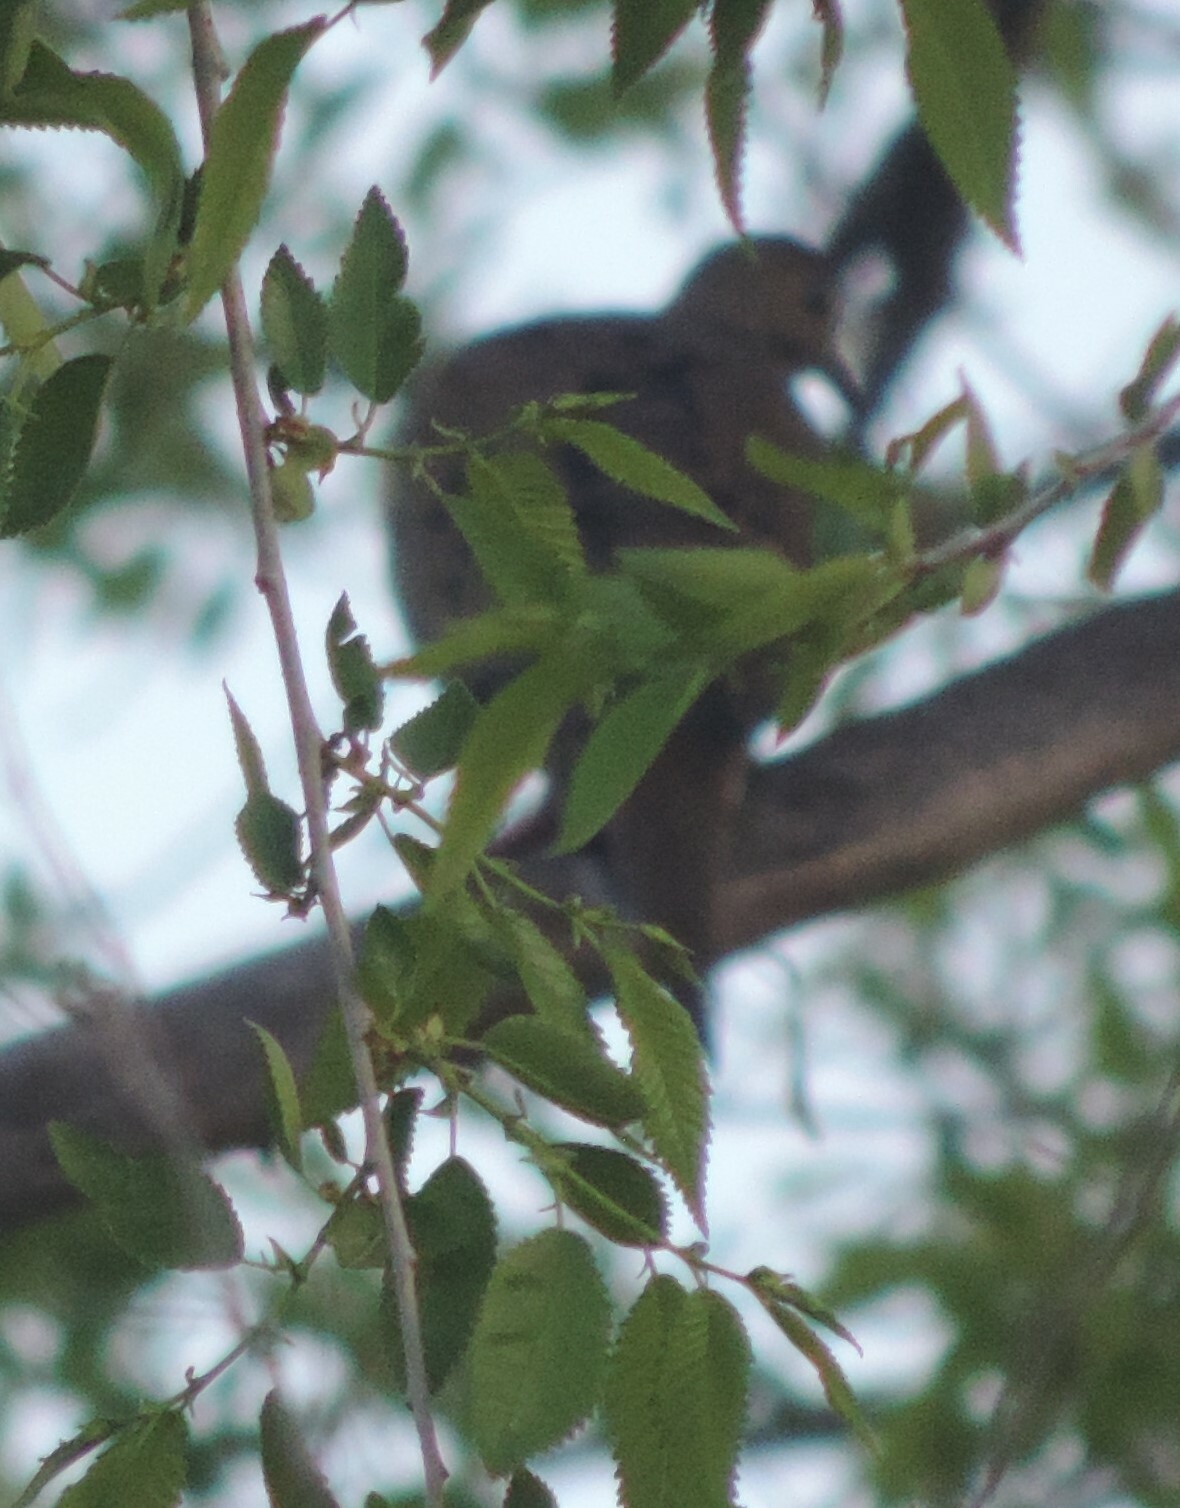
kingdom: Animalia
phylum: Chordata
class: Aves
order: Columbiformes
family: Columbidae
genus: Zenaida
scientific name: Zenaida macroura
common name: Mourning dove
